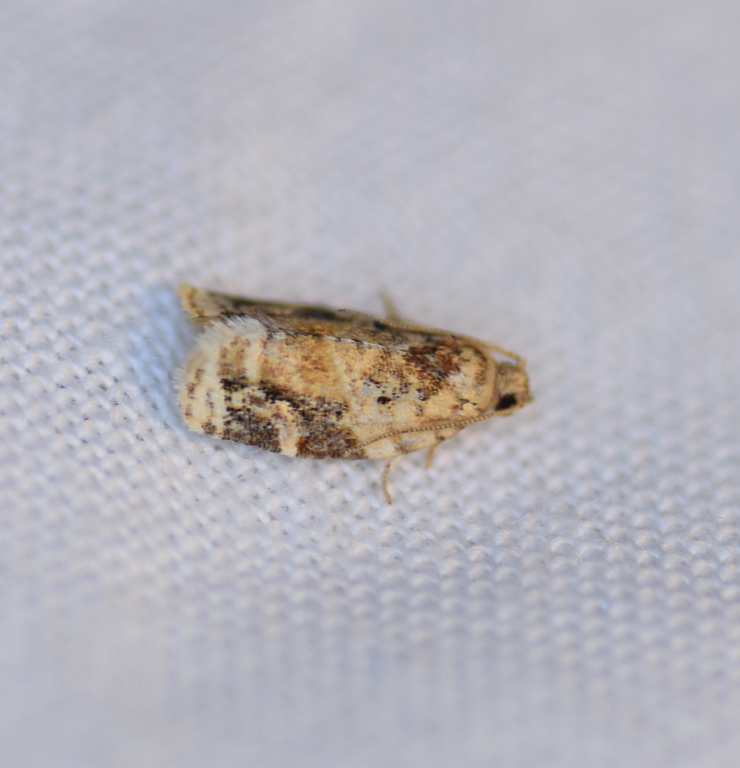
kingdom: Animalia
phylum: Arthropoda
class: Insecta
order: Lepidoptera
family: Tortricidae
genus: Argyrotaenia
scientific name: Argyrotaenia velutinana
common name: Red-banded leafroller moth
